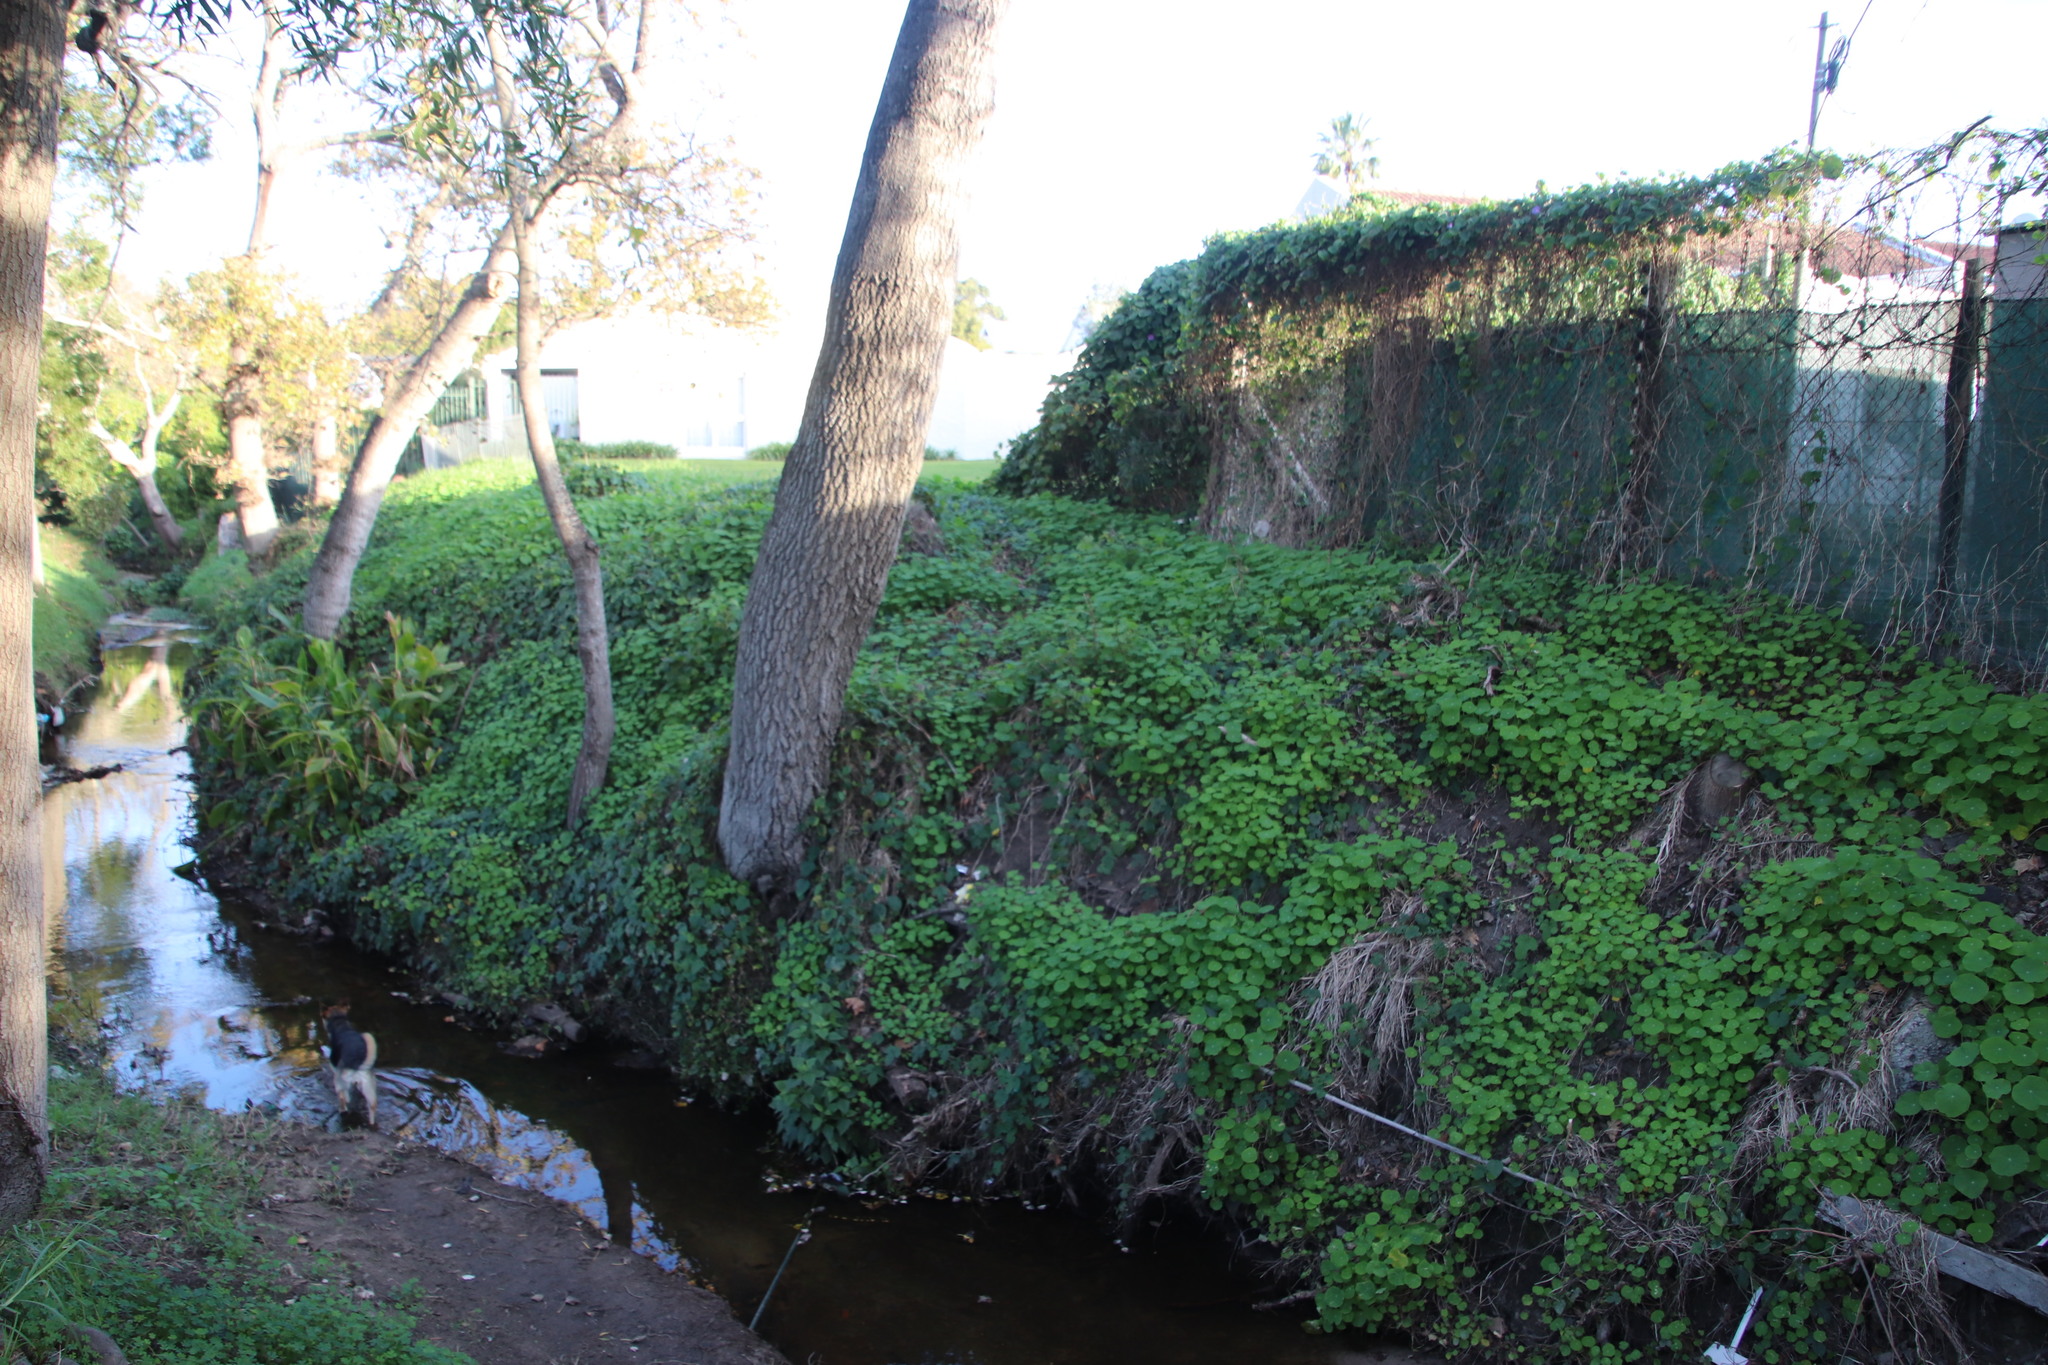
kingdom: Plantae
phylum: Tracheophyta
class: Magnoliopsida
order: Brassicales
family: Tropaeolaceae
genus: Tropaeolum
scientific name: Tropaeolum majus
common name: Nasturtium
